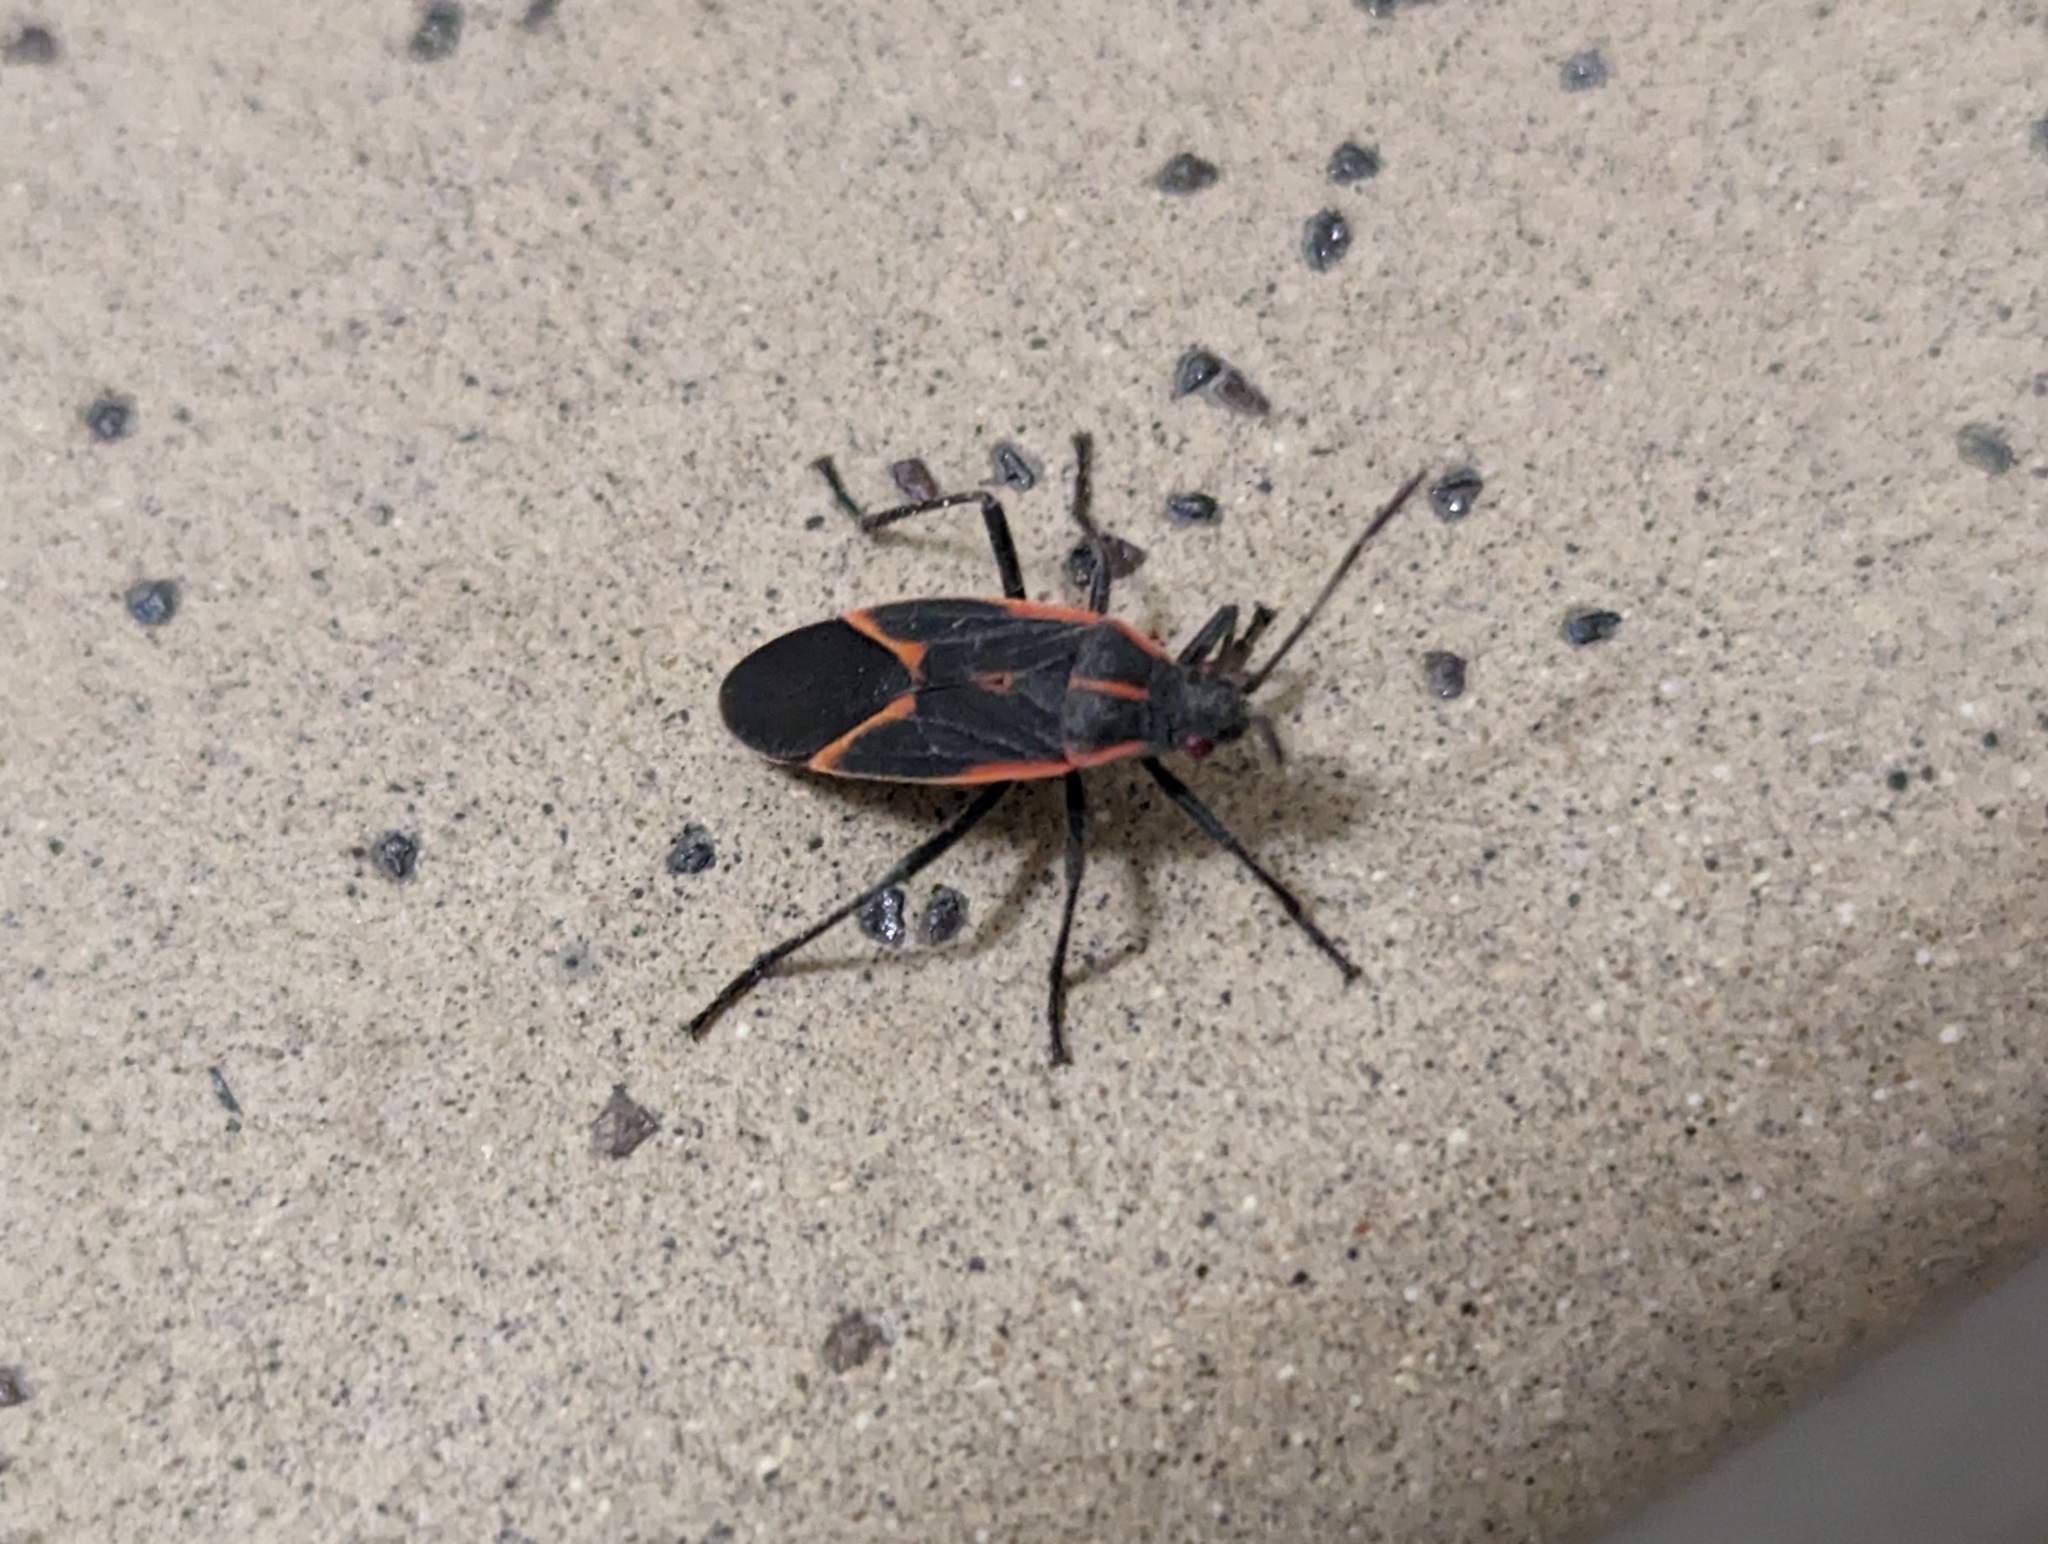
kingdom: Animalia
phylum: Arthropoda
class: Insecta
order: Hemiptera
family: Rhopalidae
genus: Boisea
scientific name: Boisea trivittata
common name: Boxelder bug
